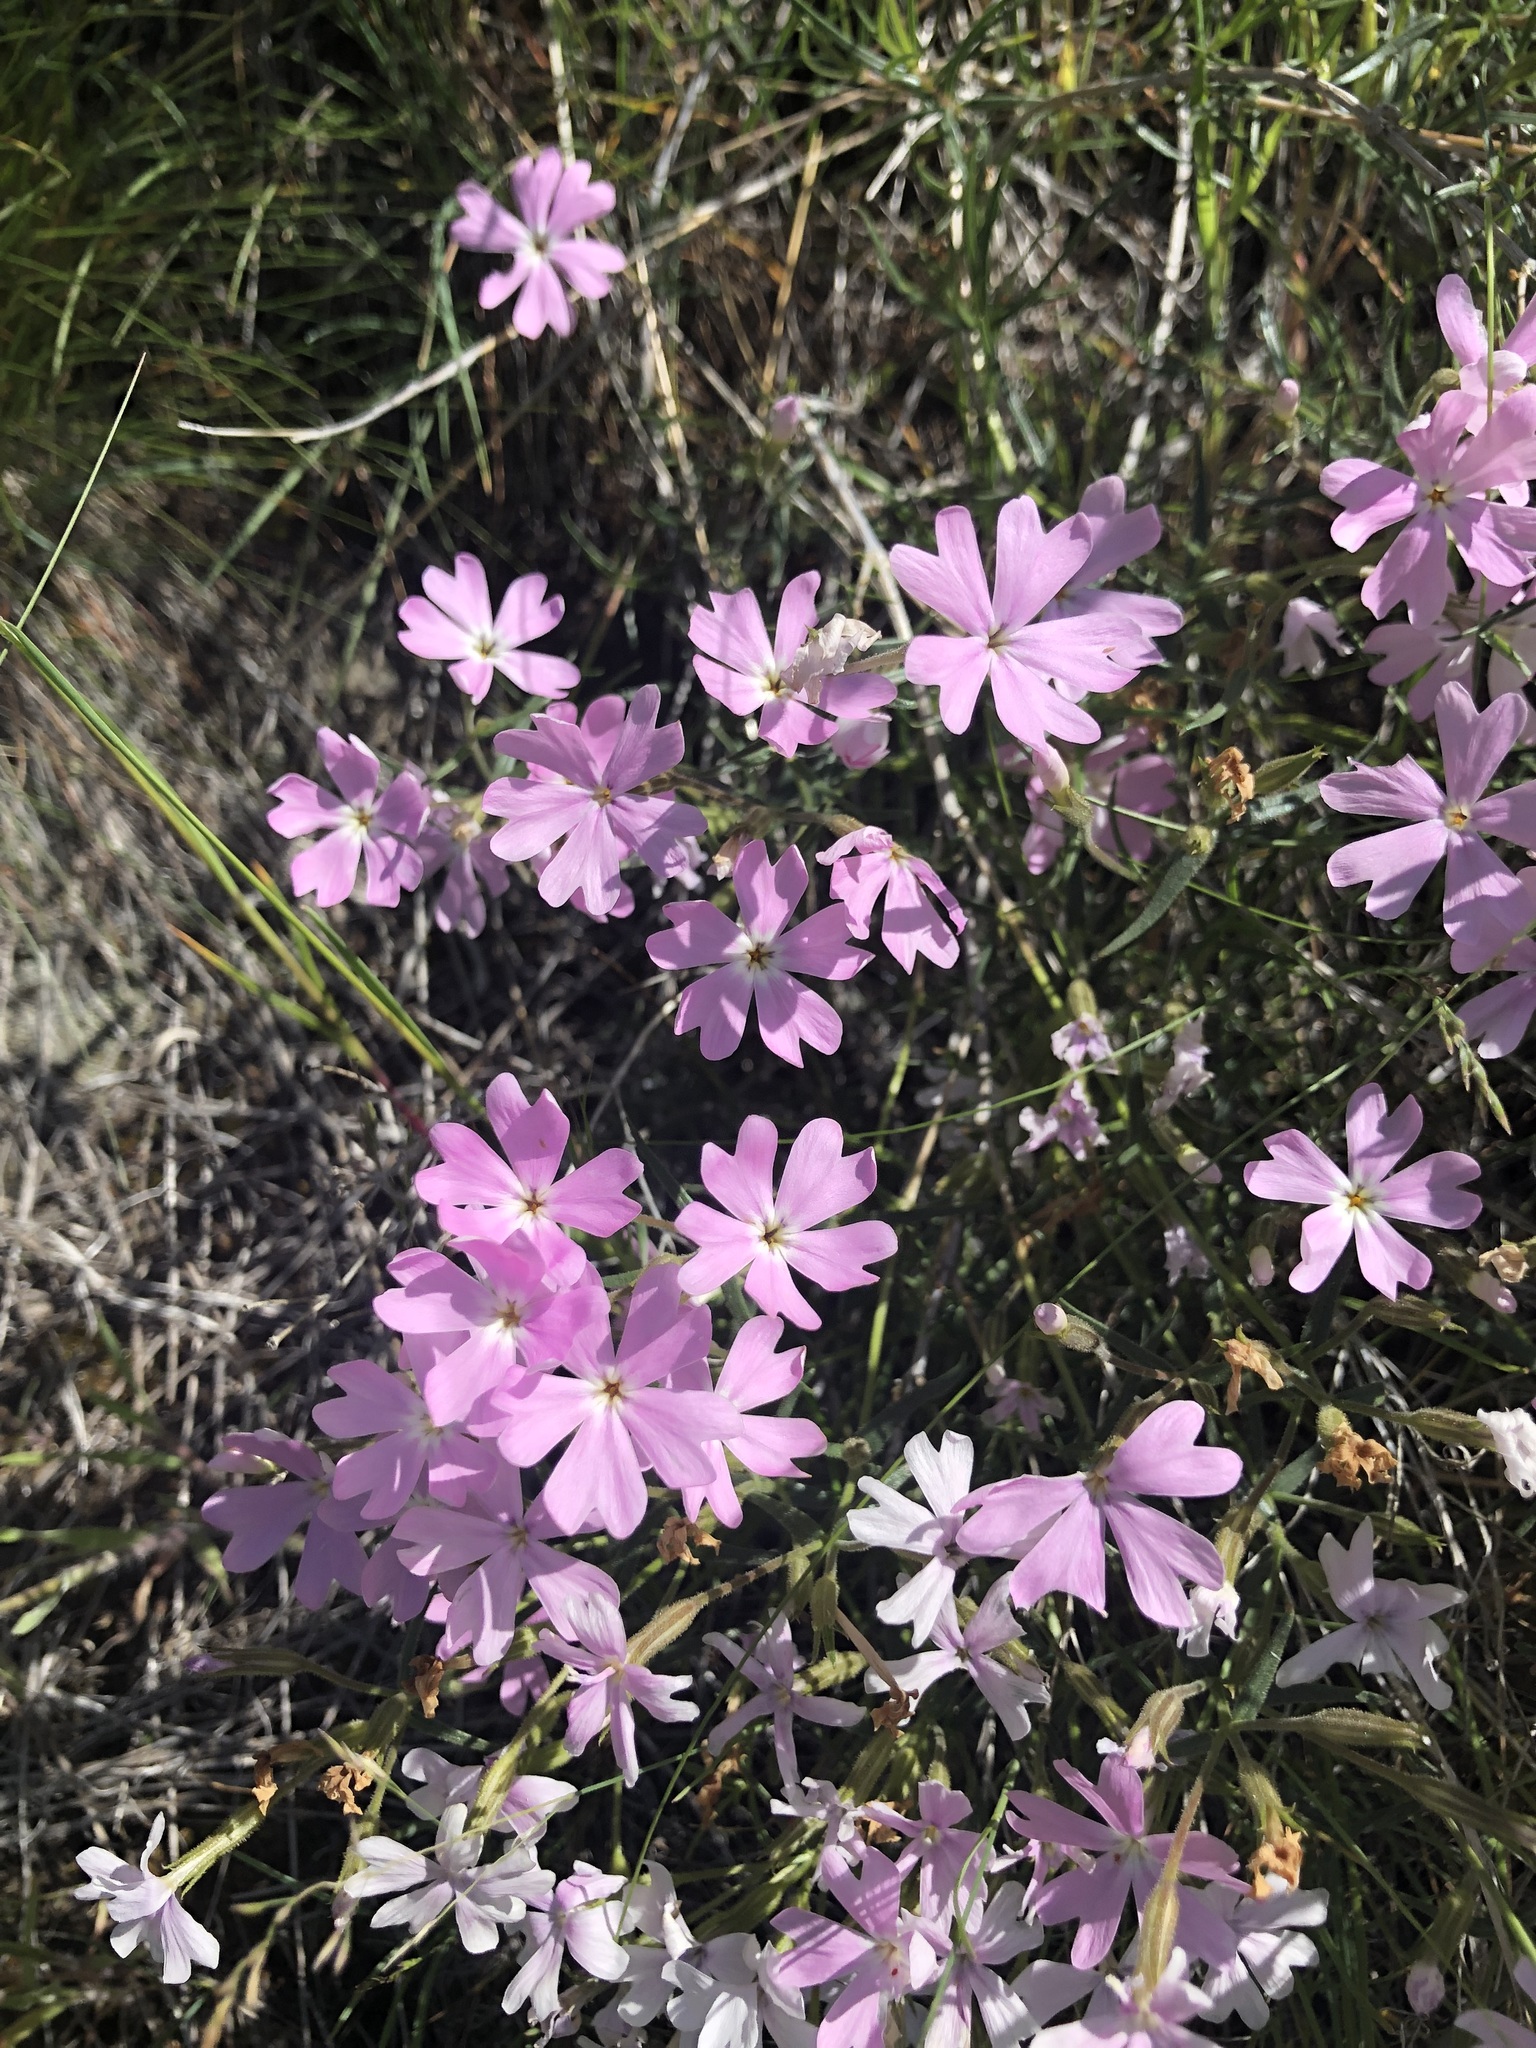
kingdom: Plantae
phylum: Tracheophyta
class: Magnoliopsida
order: Ericales
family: Polemoniaceae
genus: Phlox
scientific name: Phlox speciosa
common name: Bush phlox
